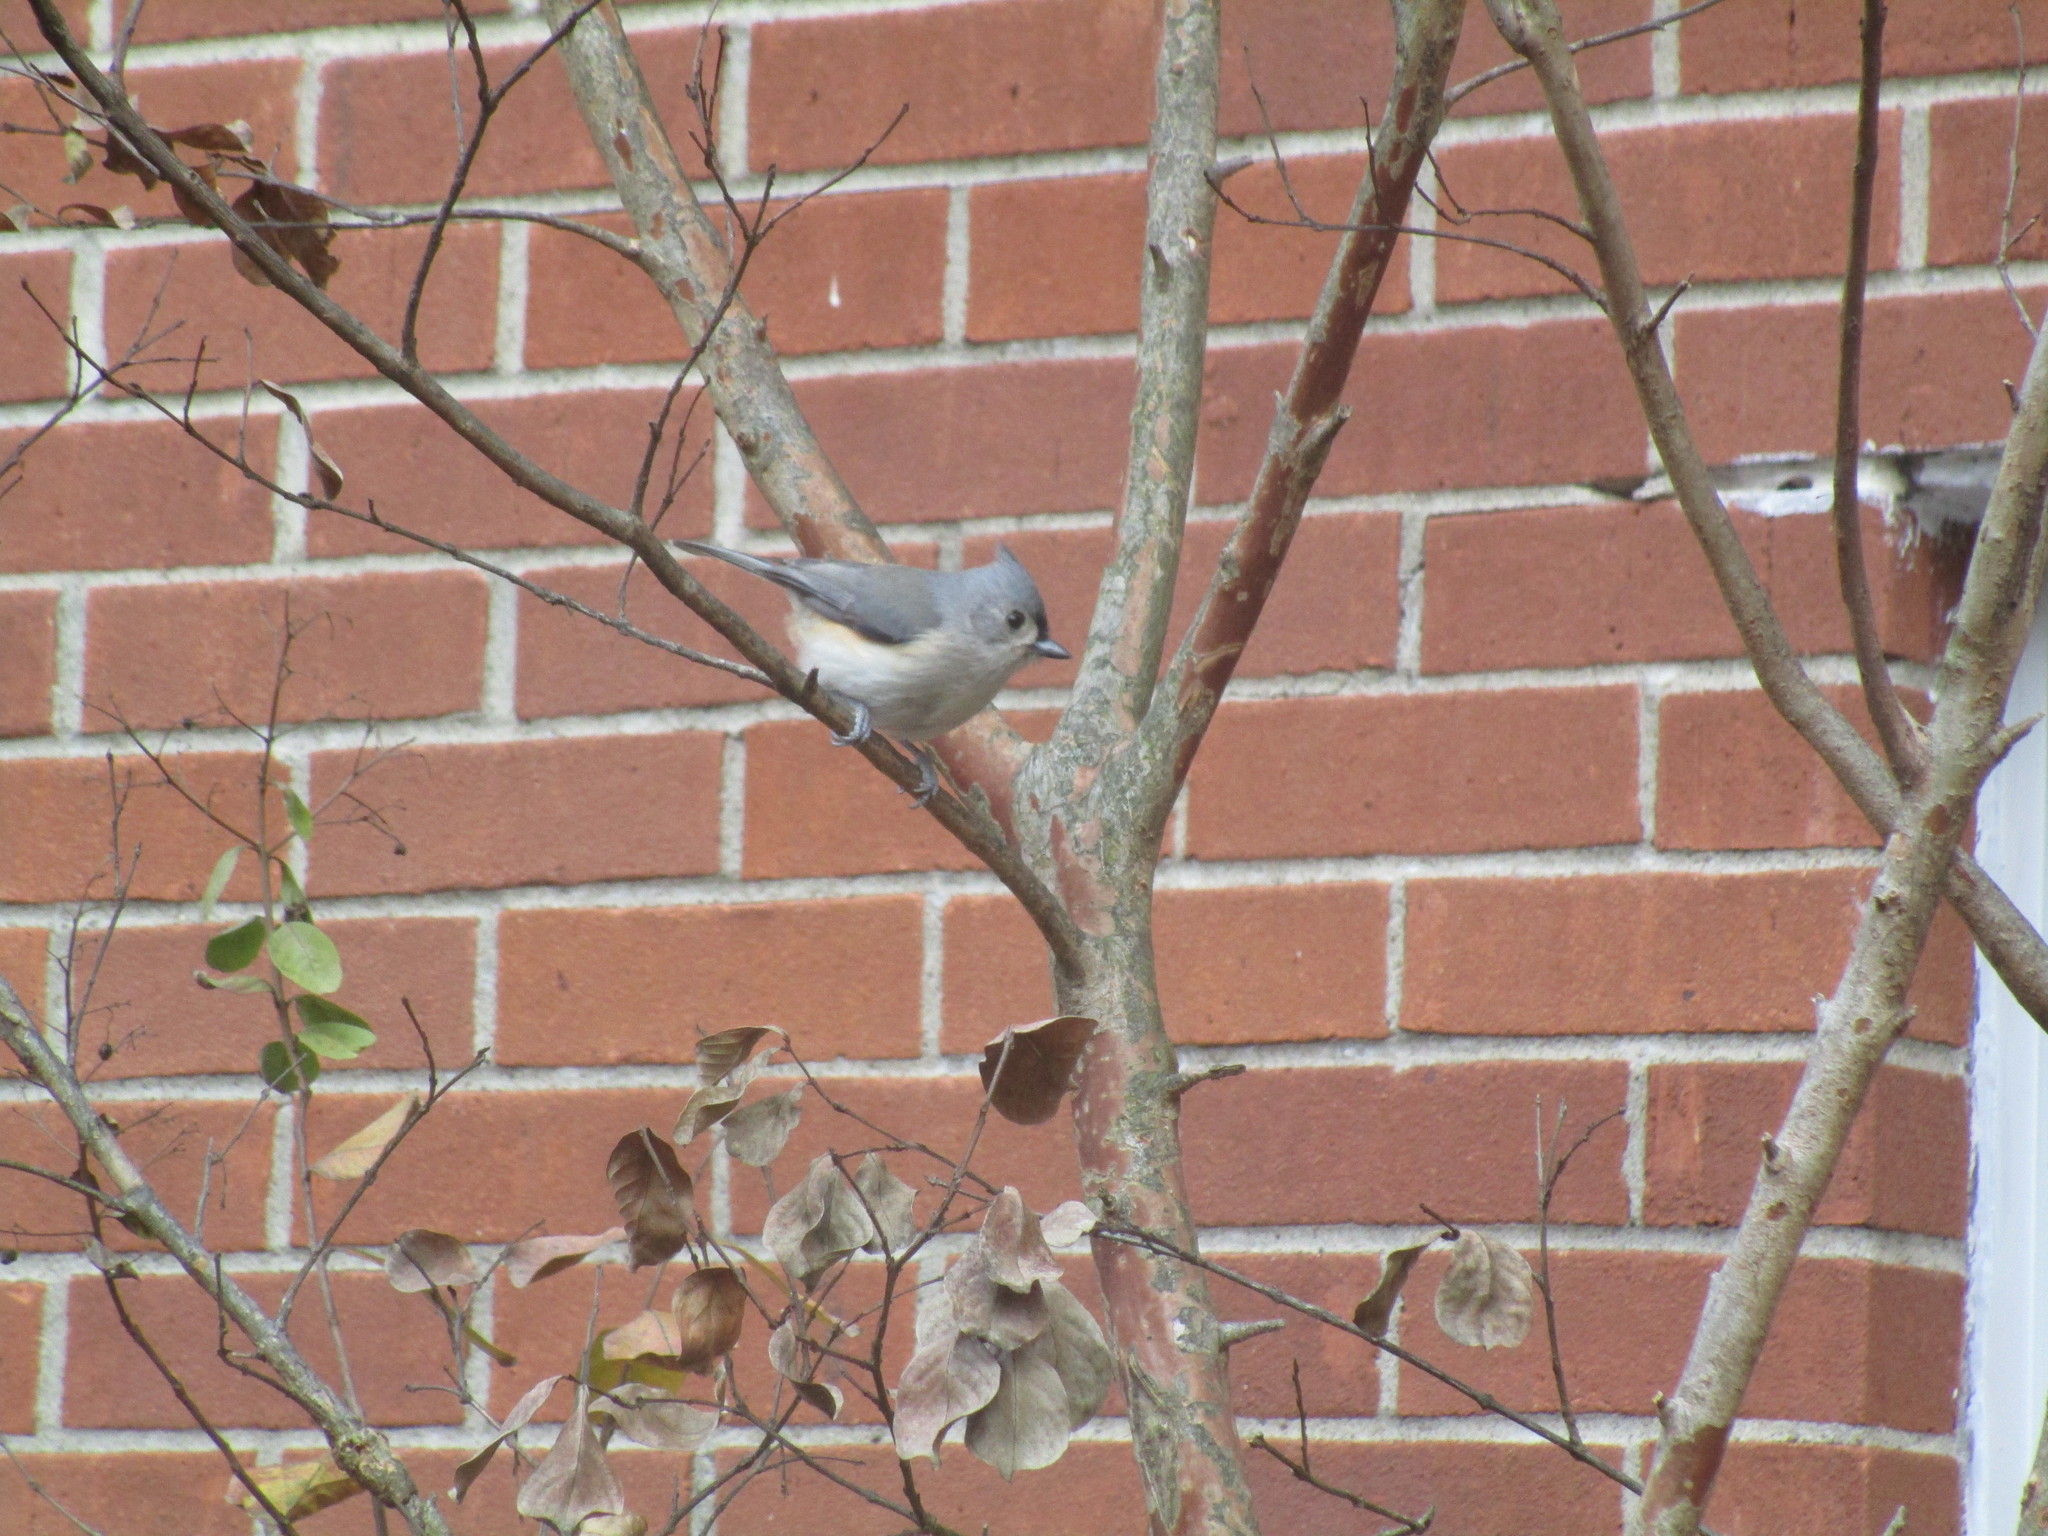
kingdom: Animalia
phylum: Chordata
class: Aves
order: Passeriformes
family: Paridae
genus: Baeolophus
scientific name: Baeolophus bicolor
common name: Tufted titmouse
